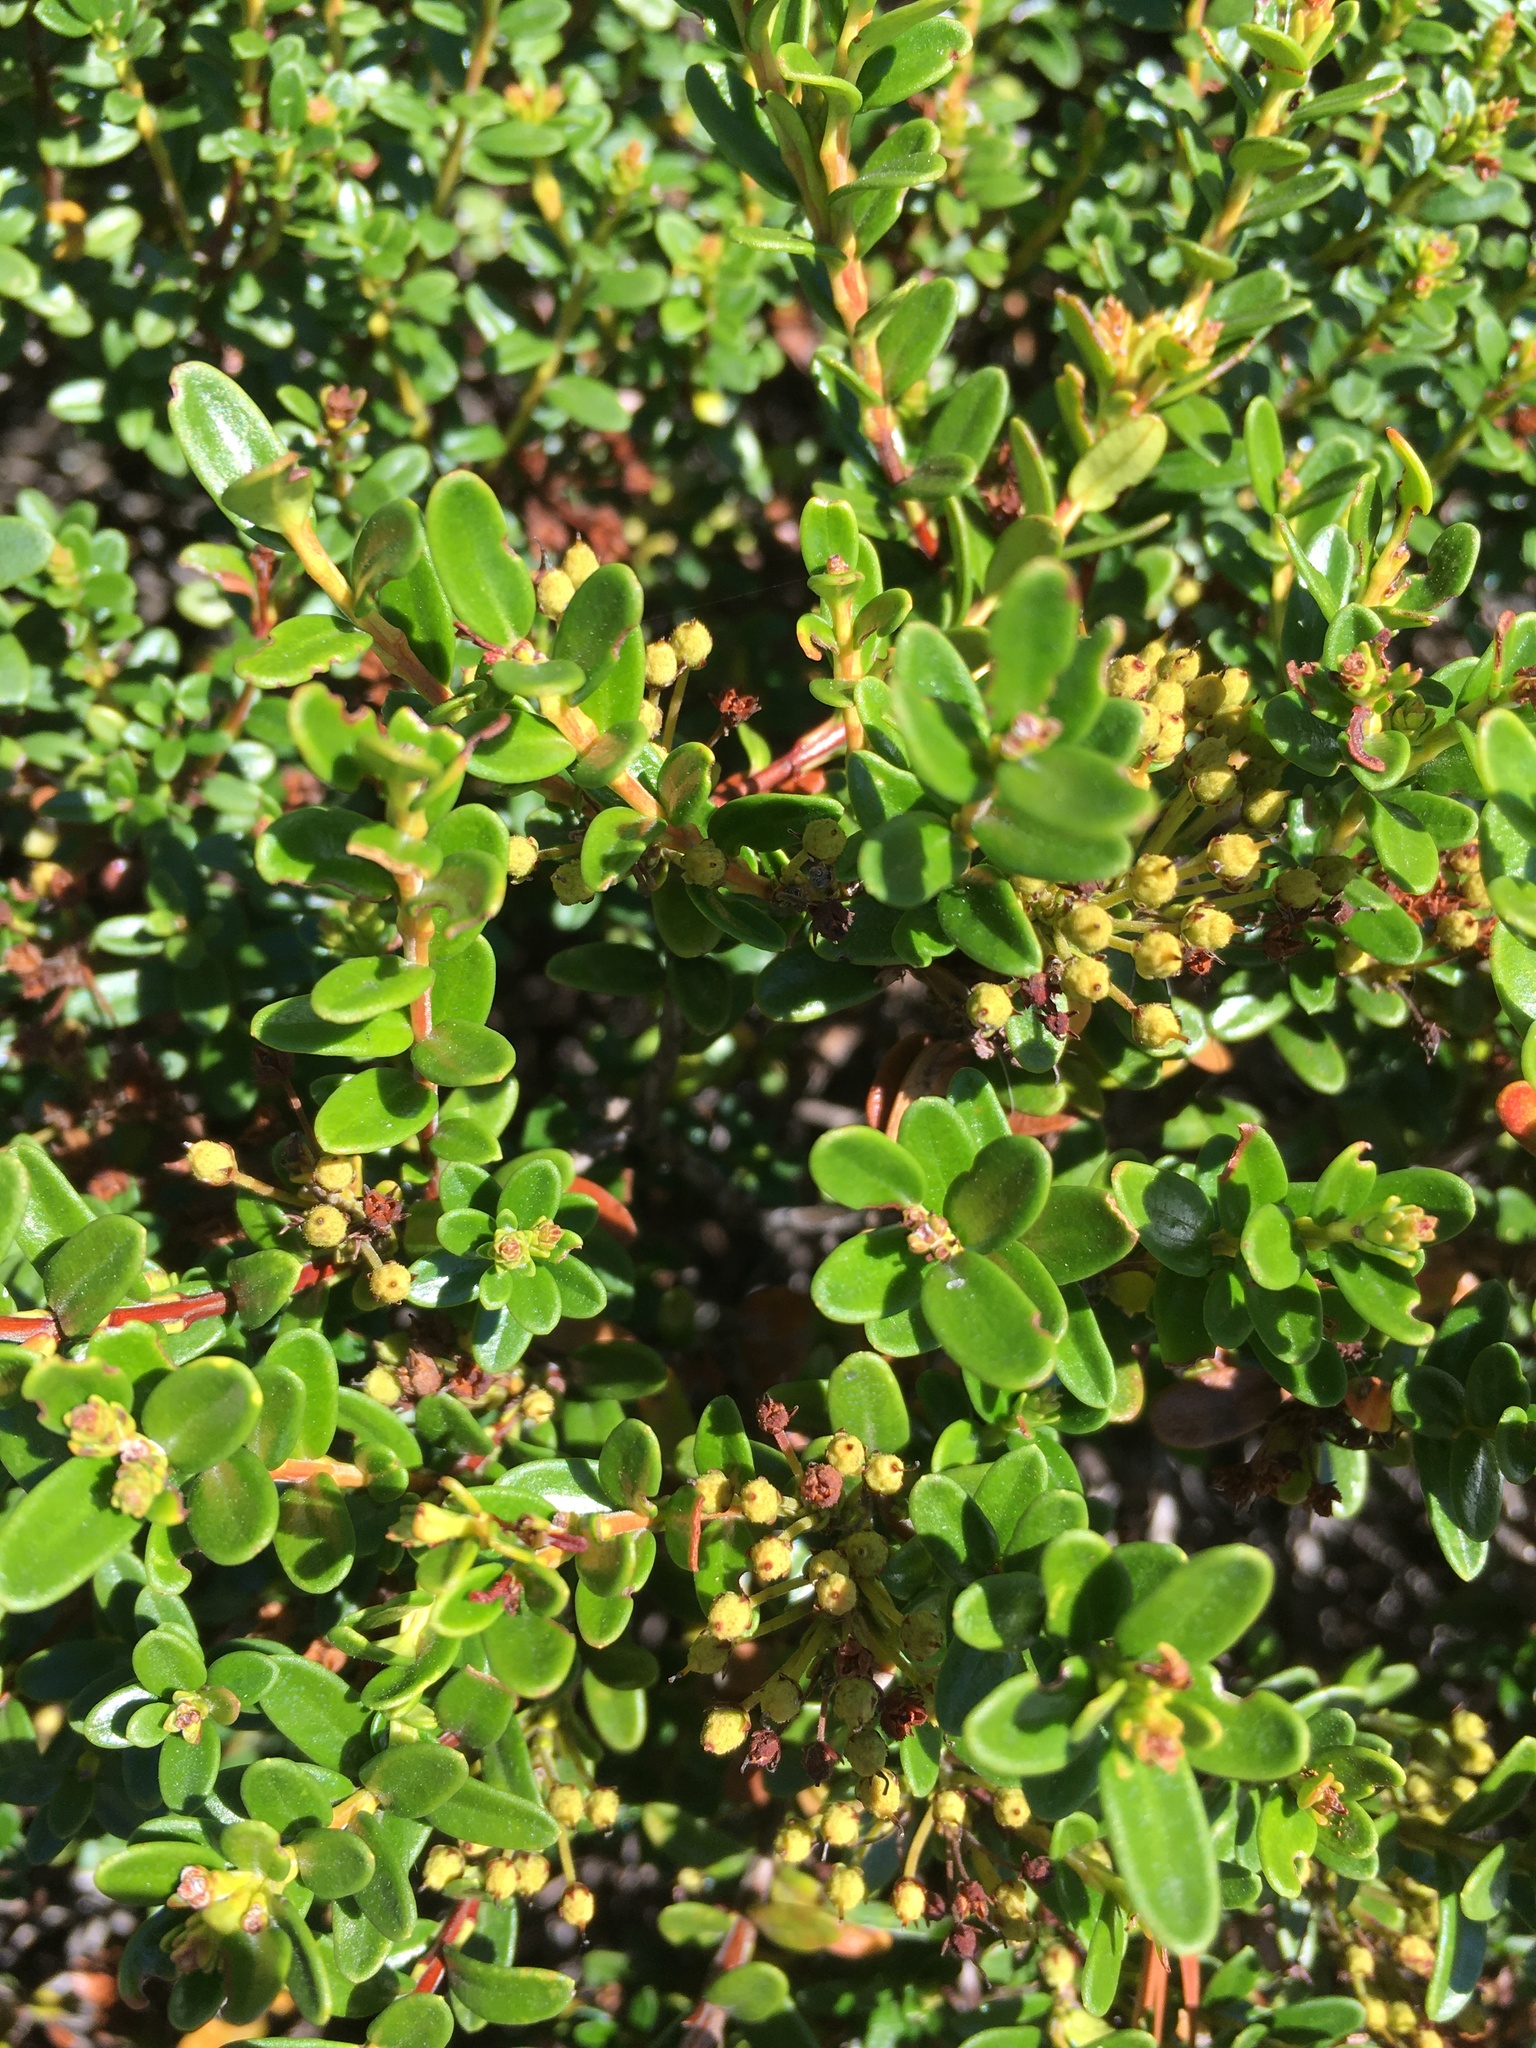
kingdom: Plantae
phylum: Tracheophyta
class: Magnoliopsida
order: Ericales
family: Ericaceae
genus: Kalmia
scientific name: Kalmia buxifolia
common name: Sandmyrtle
